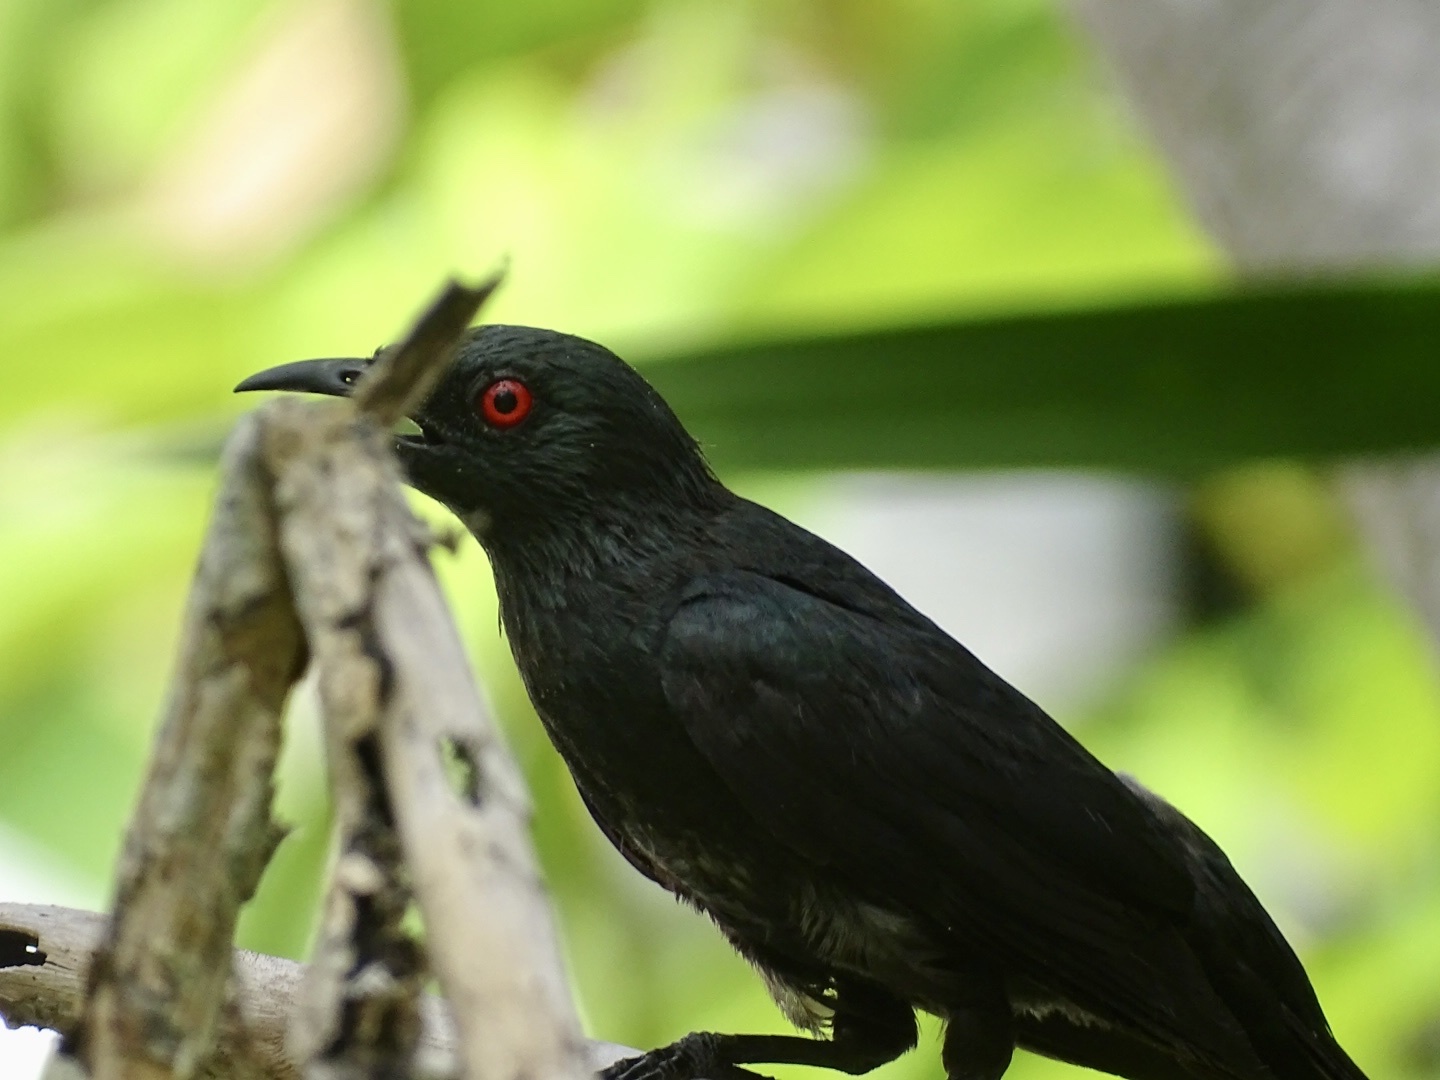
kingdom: Animalia
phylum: Chordata
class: Aves
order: Passeriformes
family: Sturnidae
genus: Aplonis
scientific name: Aplonis panayensis
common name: Asian glossy starling
